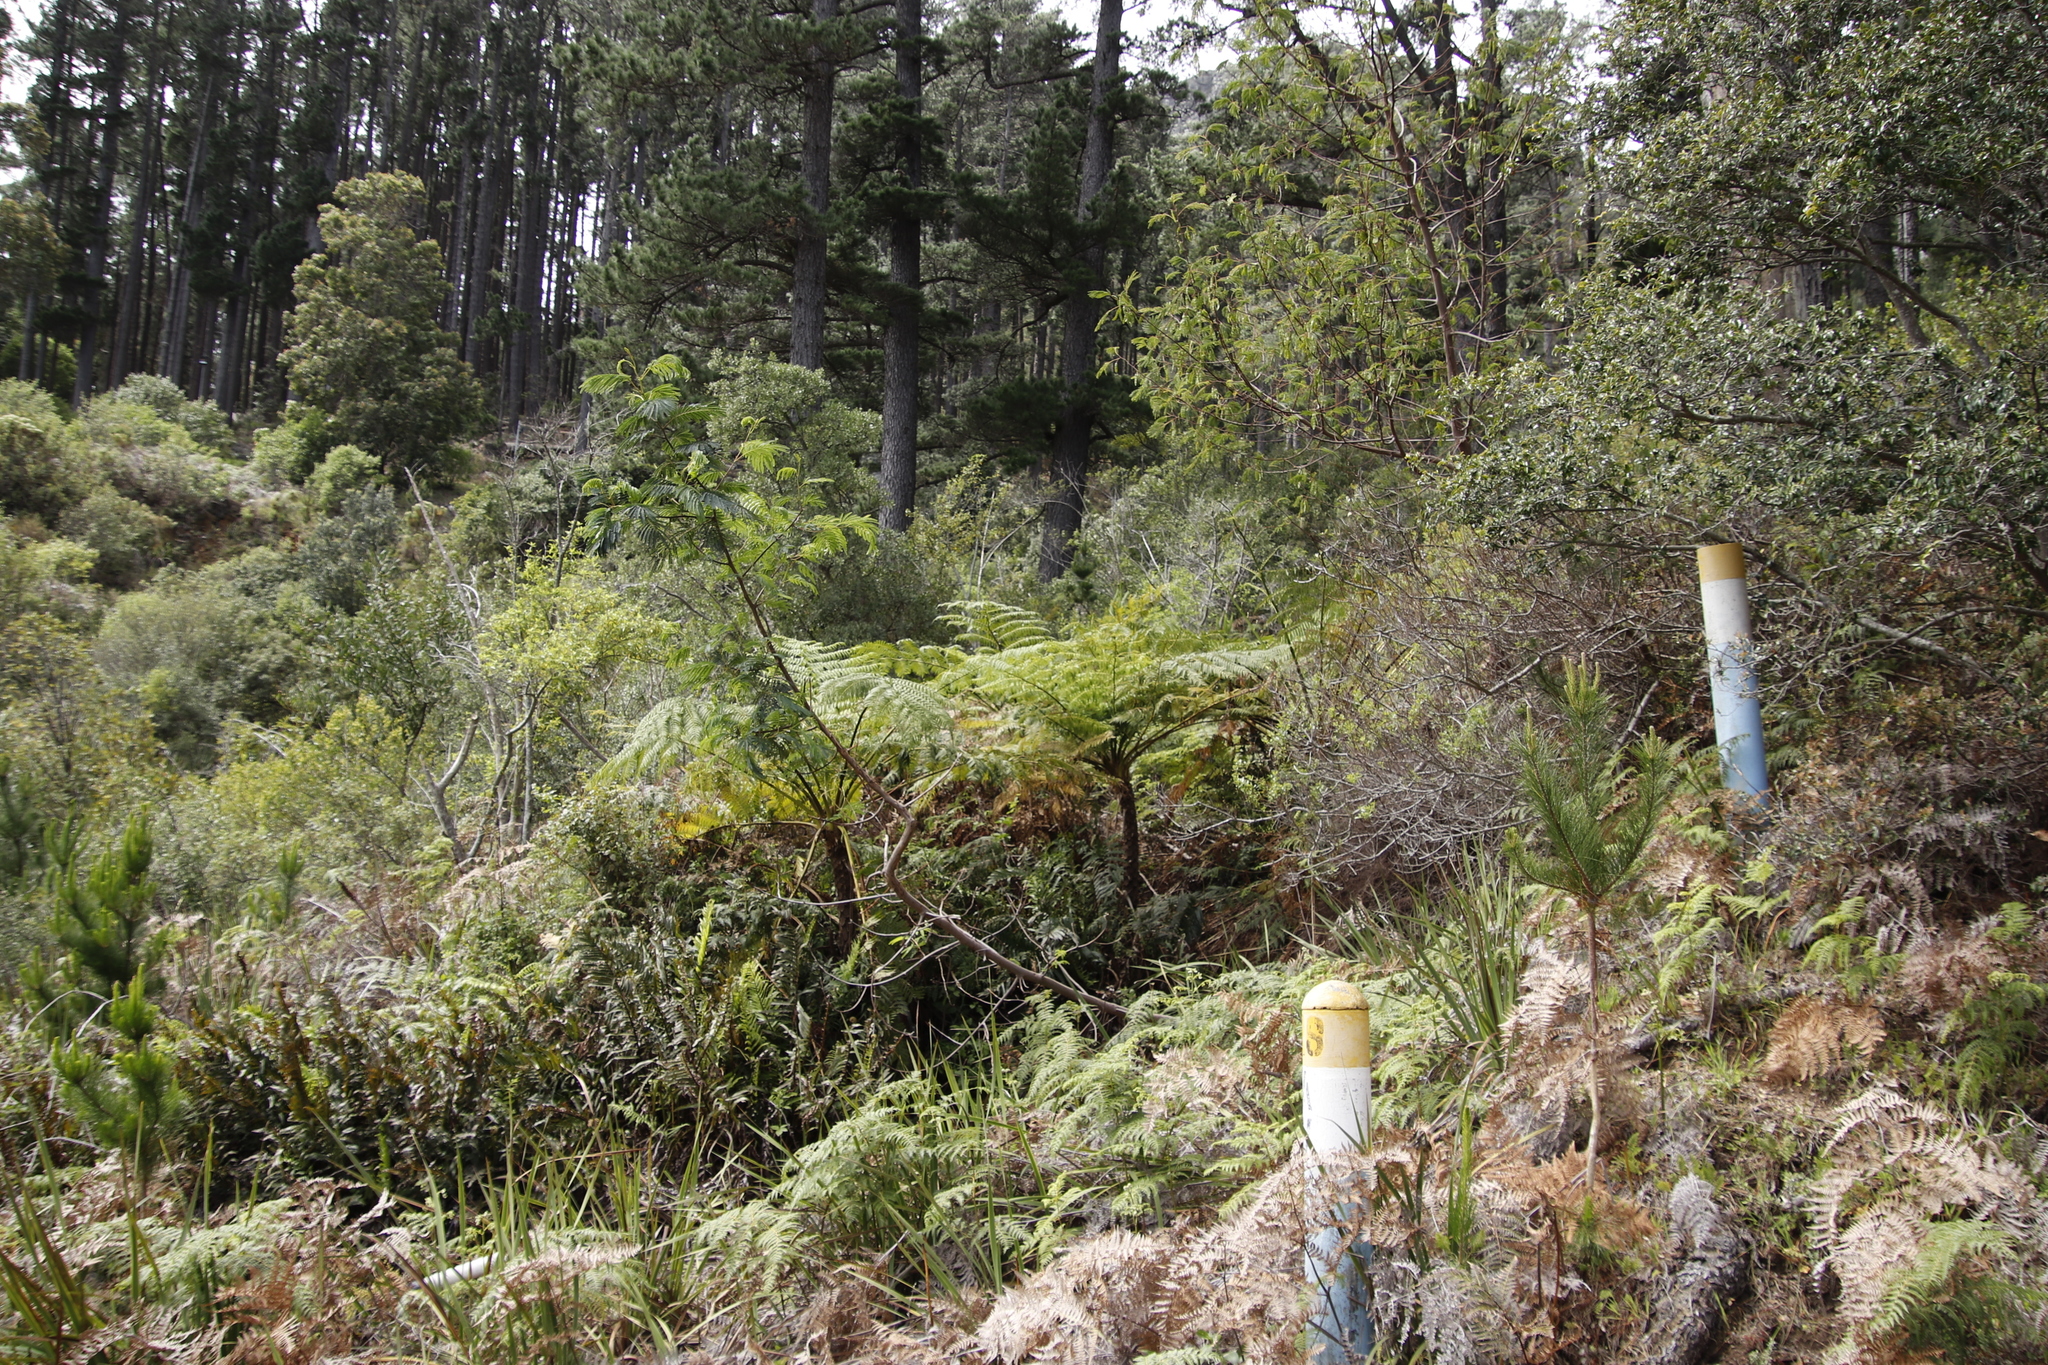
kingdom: Plantae
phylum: Tracheophyta
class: Polypodiopsida
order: Cyatheales
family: Cyatheaceae
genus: Sphaeropteris
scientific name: Sphaeropteris cooperi
